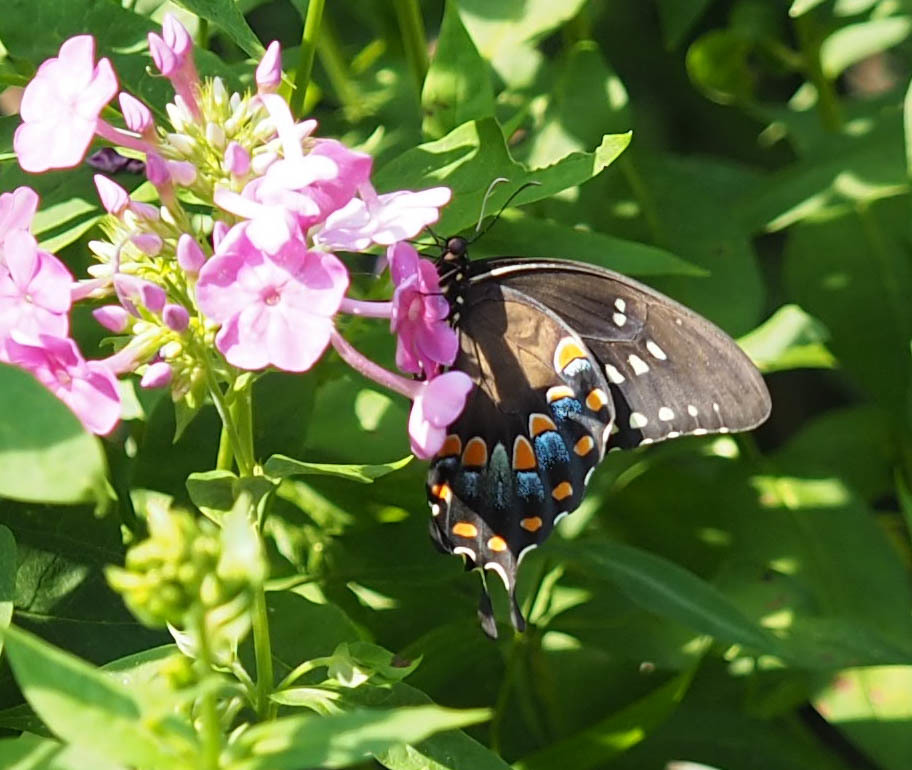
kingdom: Animalia
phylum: Arthropoda
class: Insecta
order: Lepidoptera
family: Papilionidae
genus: Papilio
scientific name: Papilio troilus
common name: Spicebush swallowtail
